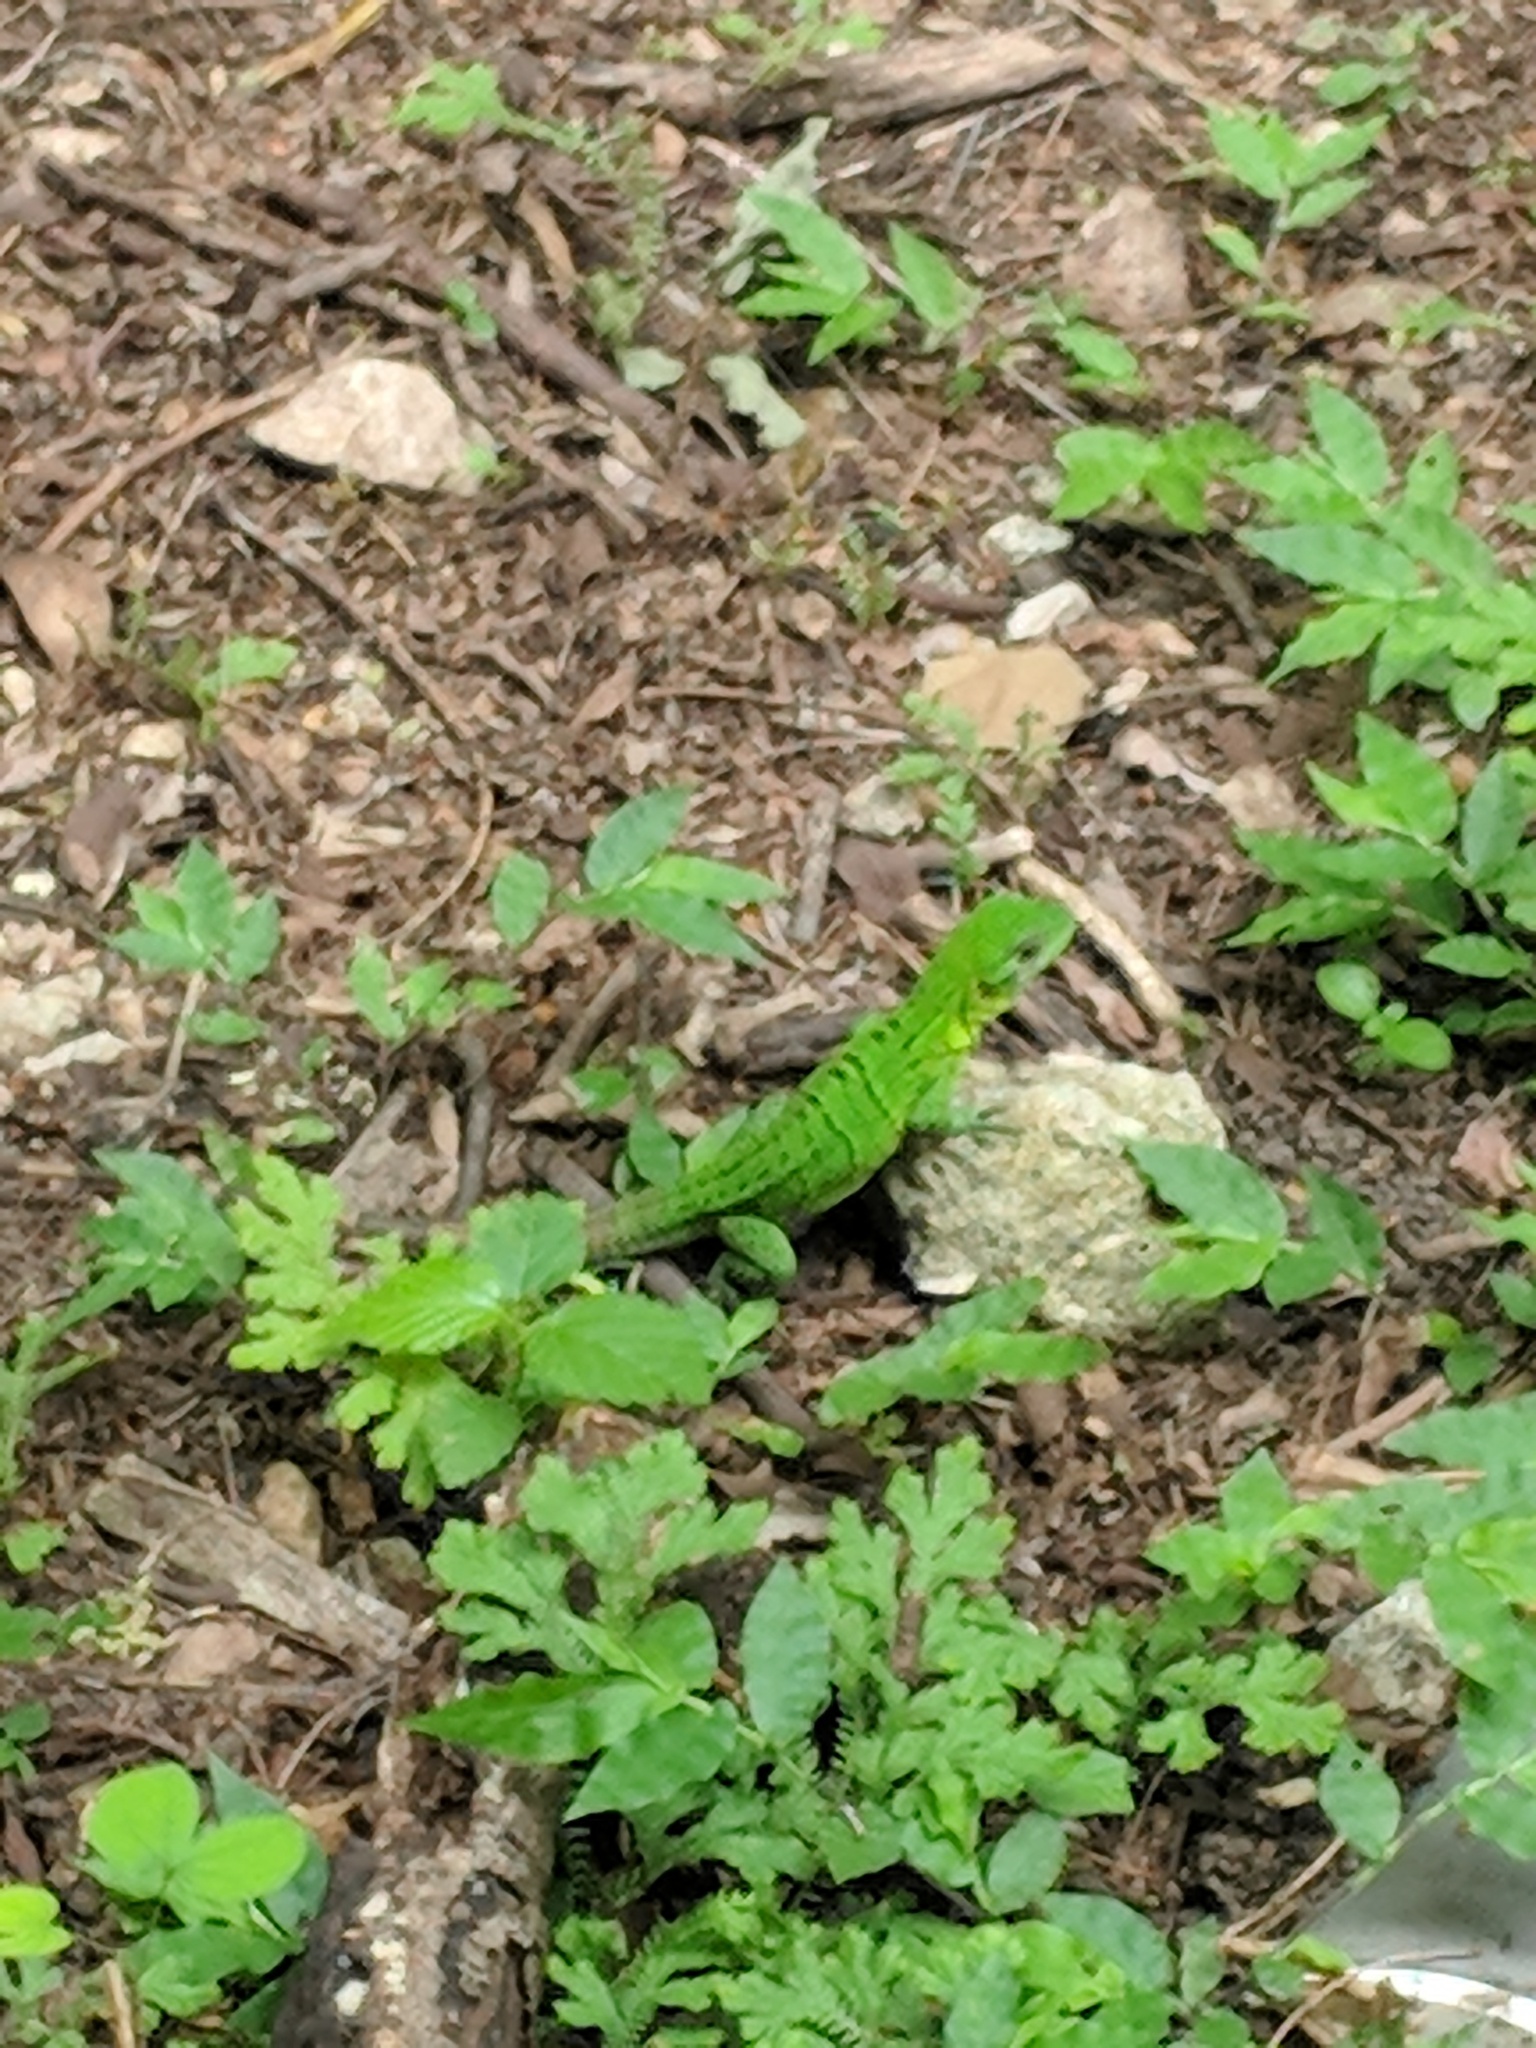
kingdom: Animalia
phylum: Chordata
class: Squamata
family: Iguanidae
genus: Ctenosaura
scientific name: Ctenosaura similis
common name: Black spiny-tailed iguana
